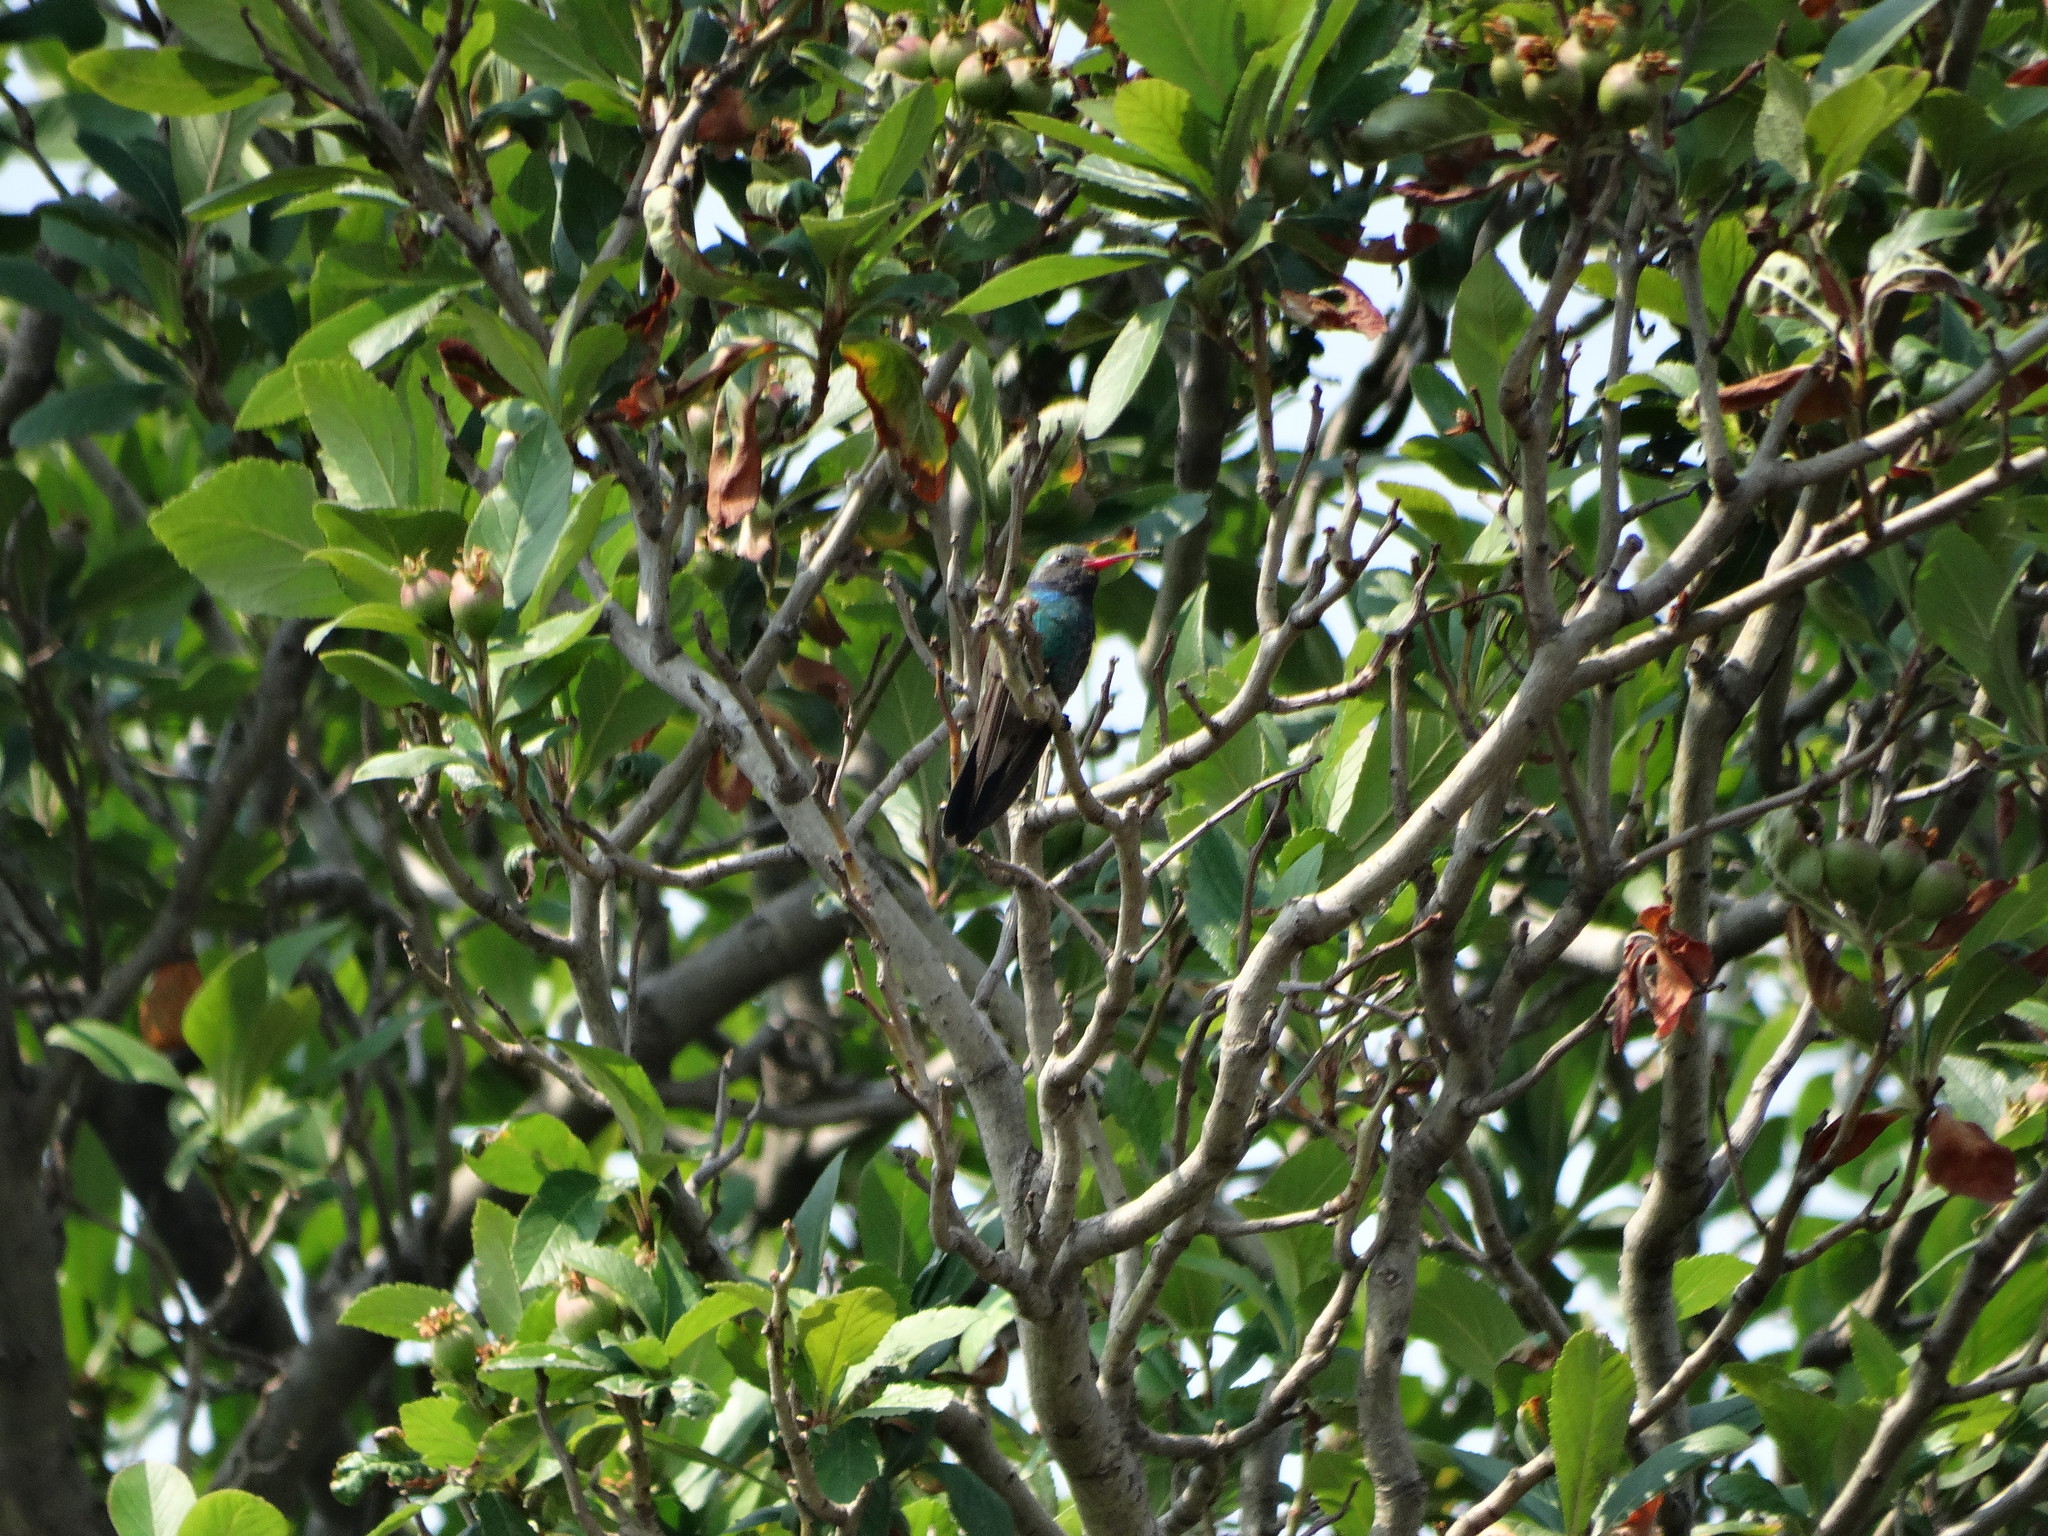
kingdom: Animalia
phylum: Chordata
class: Aves
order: Apodiformes
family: Trochilidae
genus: Cynanthus
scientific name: Cynanthus latirostris
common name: Broad-billed hummingbird
